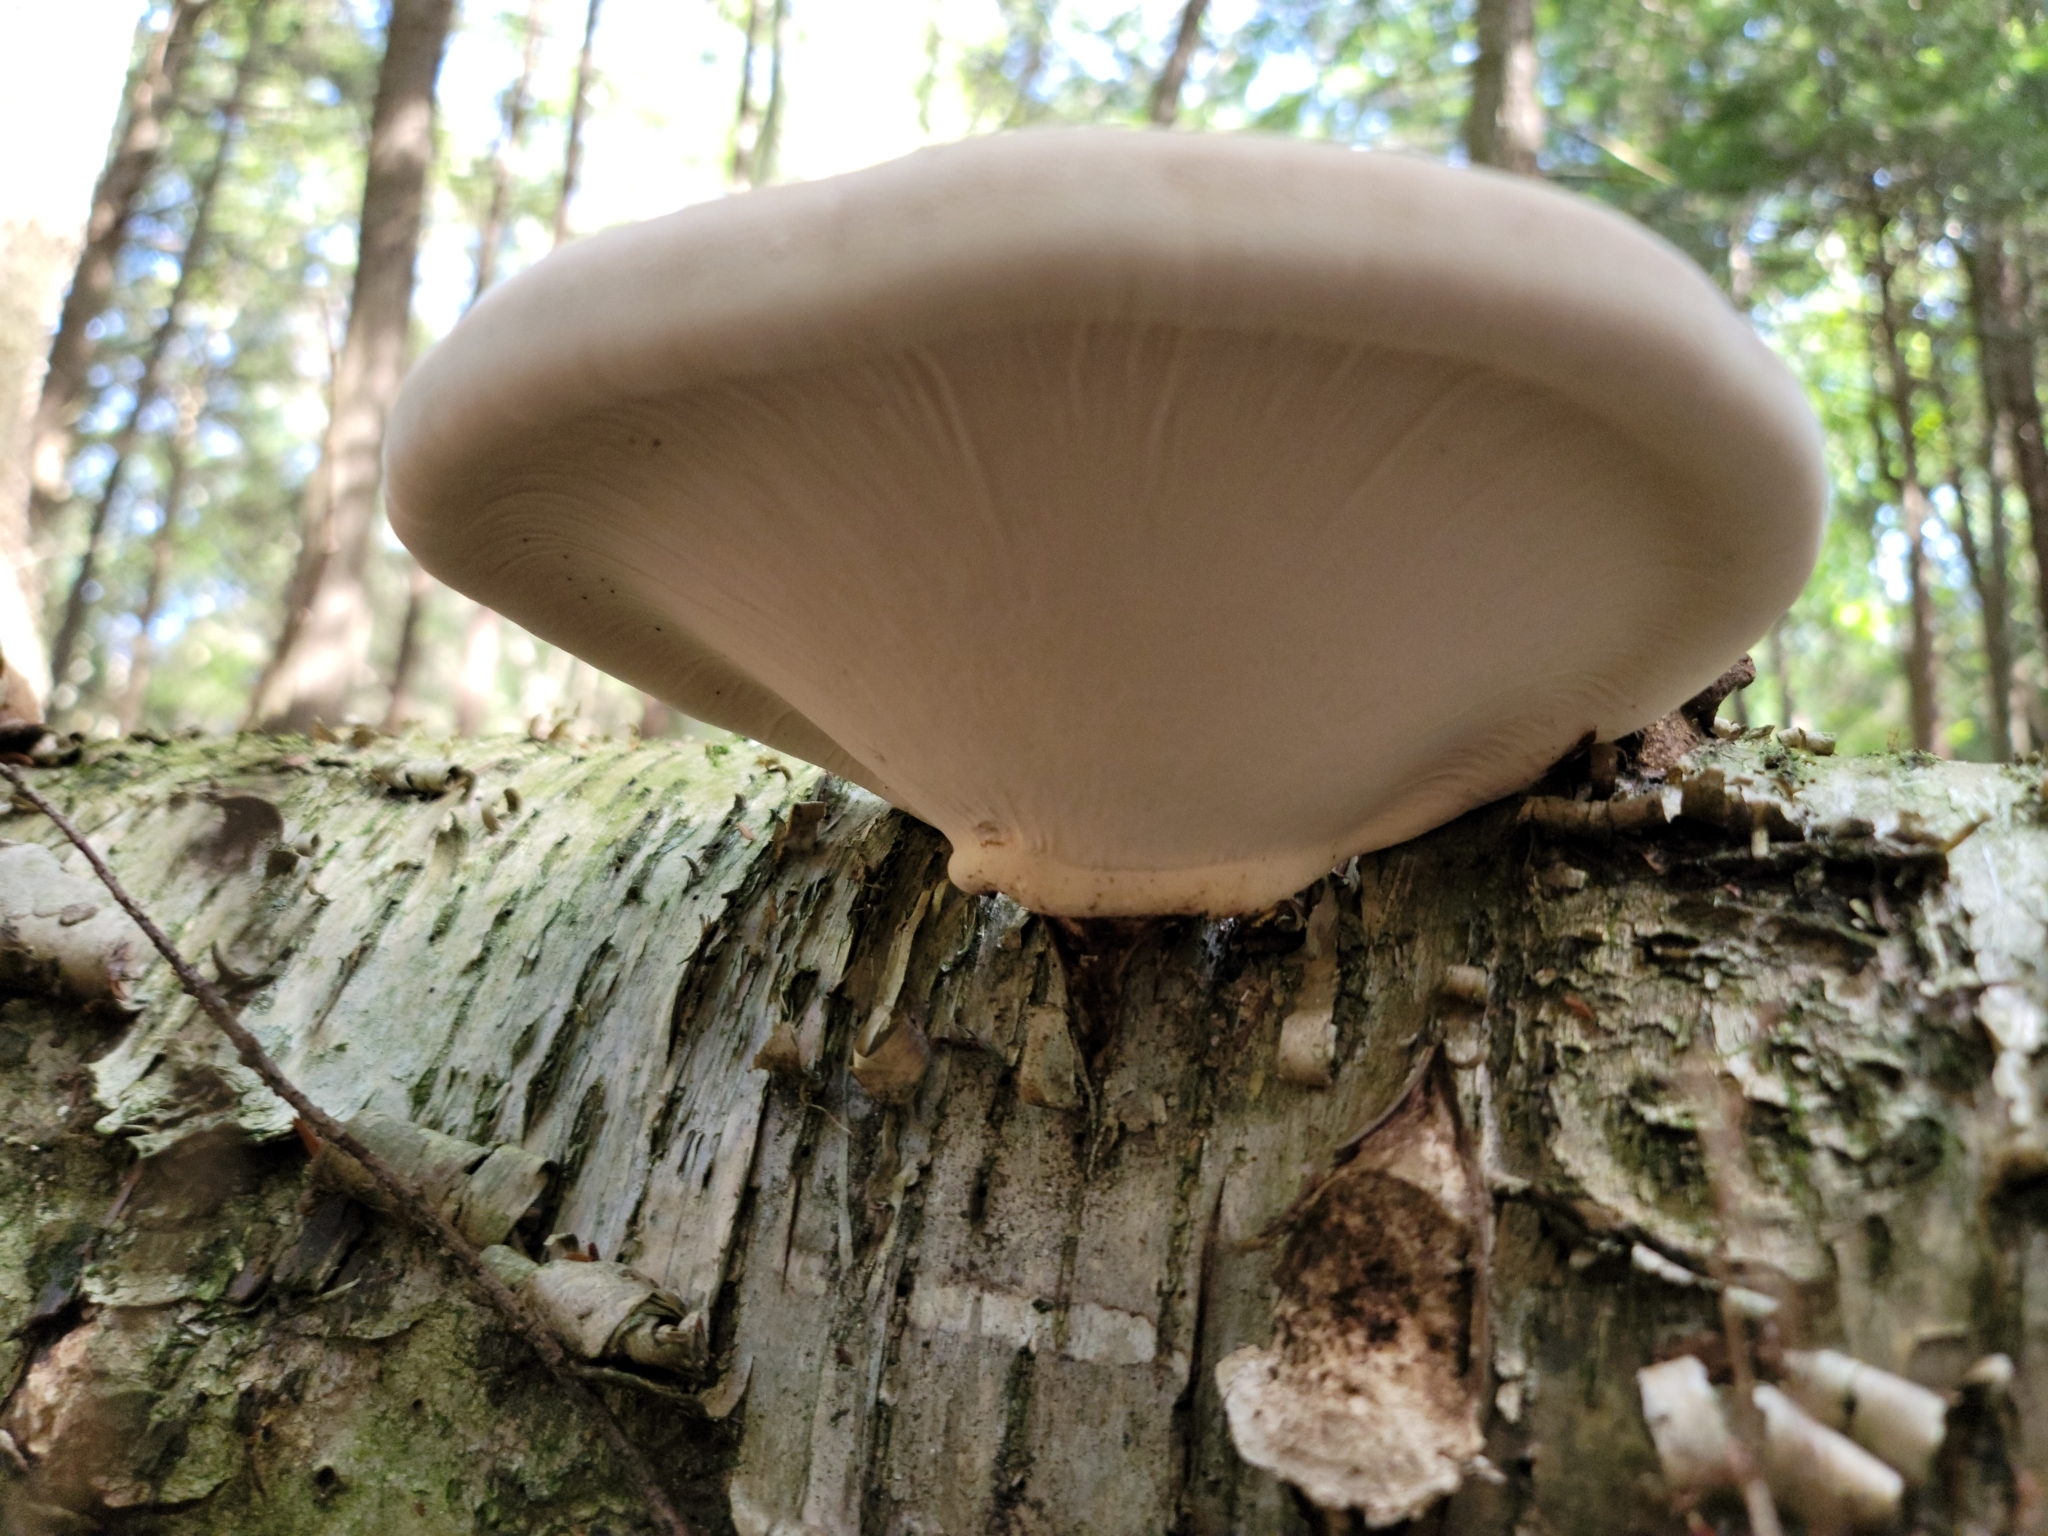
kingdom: Fungi
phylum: Basidiomycota
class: Agaricomycetes
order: Polyporales
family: Fomitopsidaceae
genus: Fomitopsis
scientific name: Fomitopsis betulina
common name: Birch polypore
